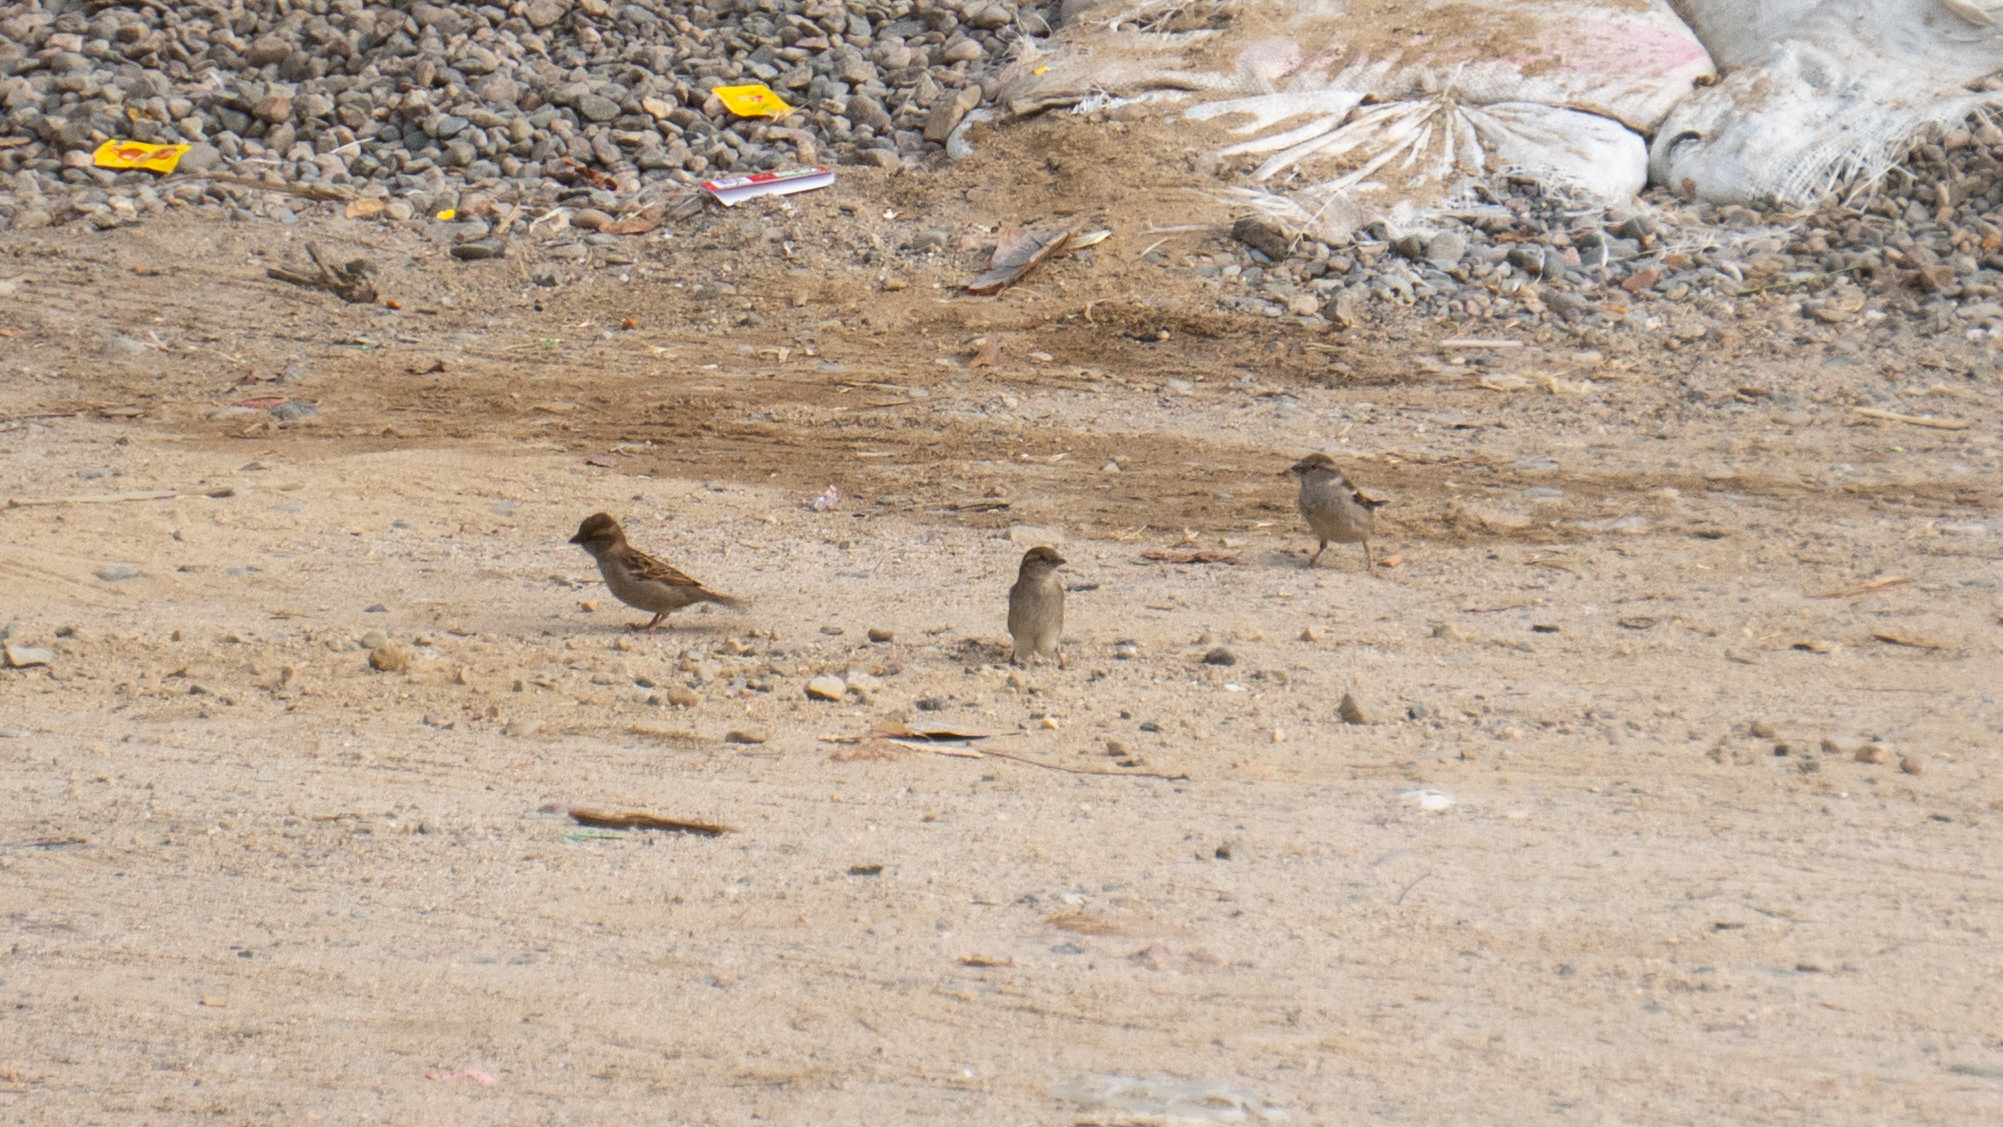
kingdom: Animalia
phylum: Chordata
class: Aves
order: Passeriformes
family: Passeridae
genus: Passer
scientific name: Passer domesticus
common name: House sparrow
